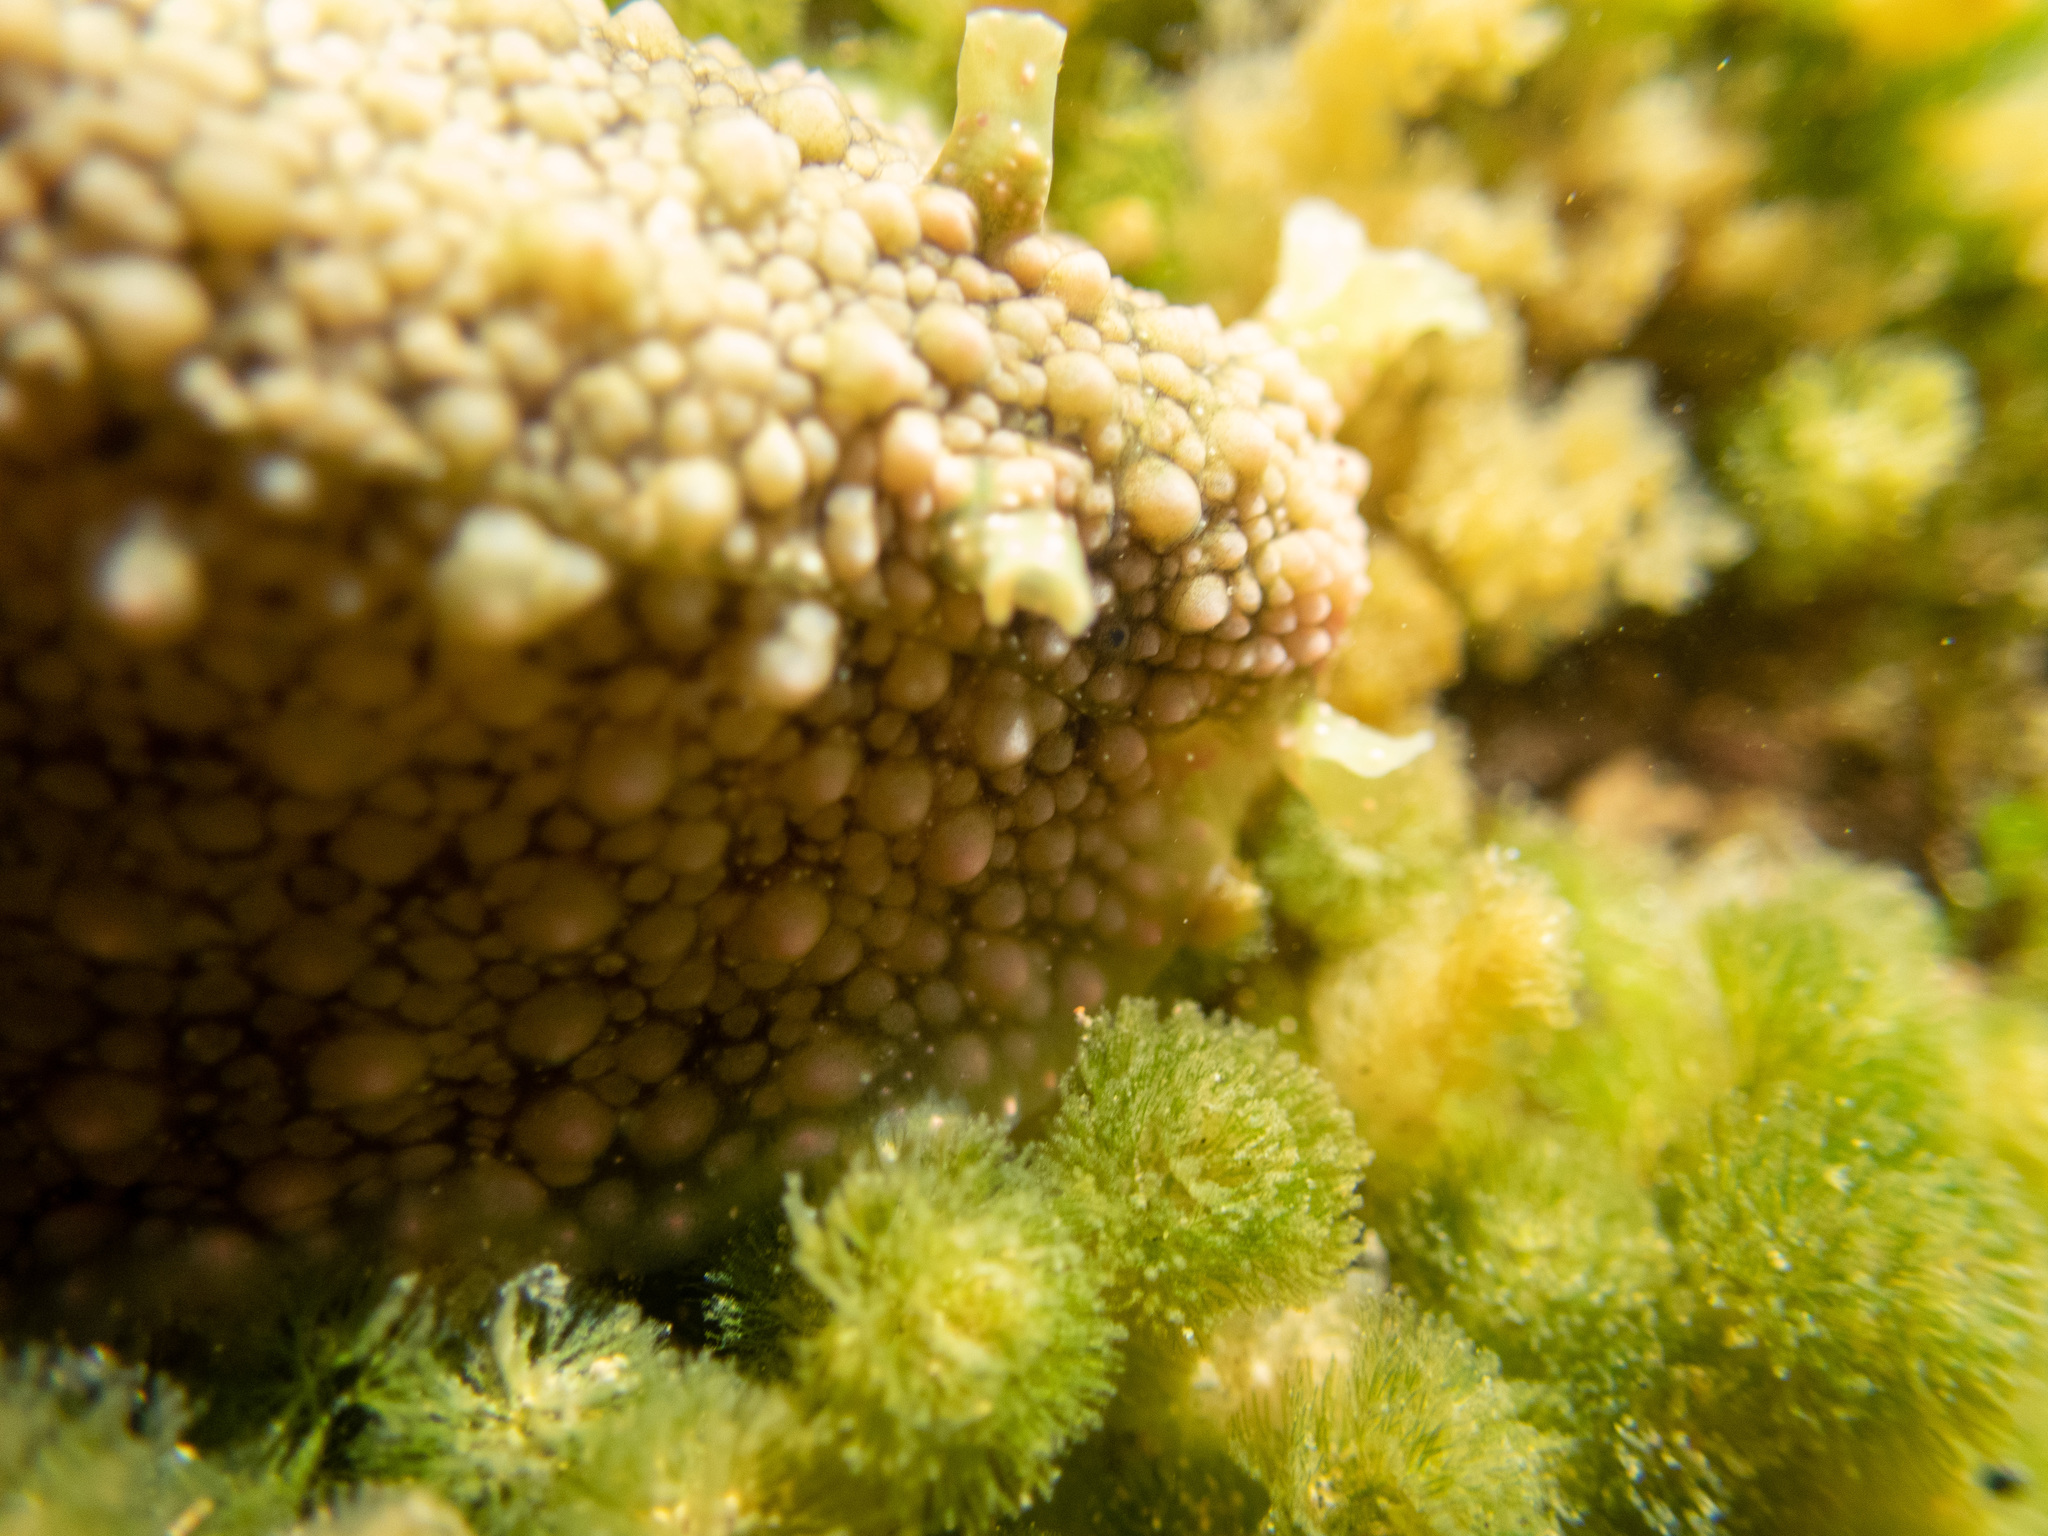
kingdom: Animalia
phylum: Mollusca
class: Gastropoda
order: Aplysiida
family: Aplysiidae
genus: Dolabrifera
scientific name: Dolabrifera nicaraguana
